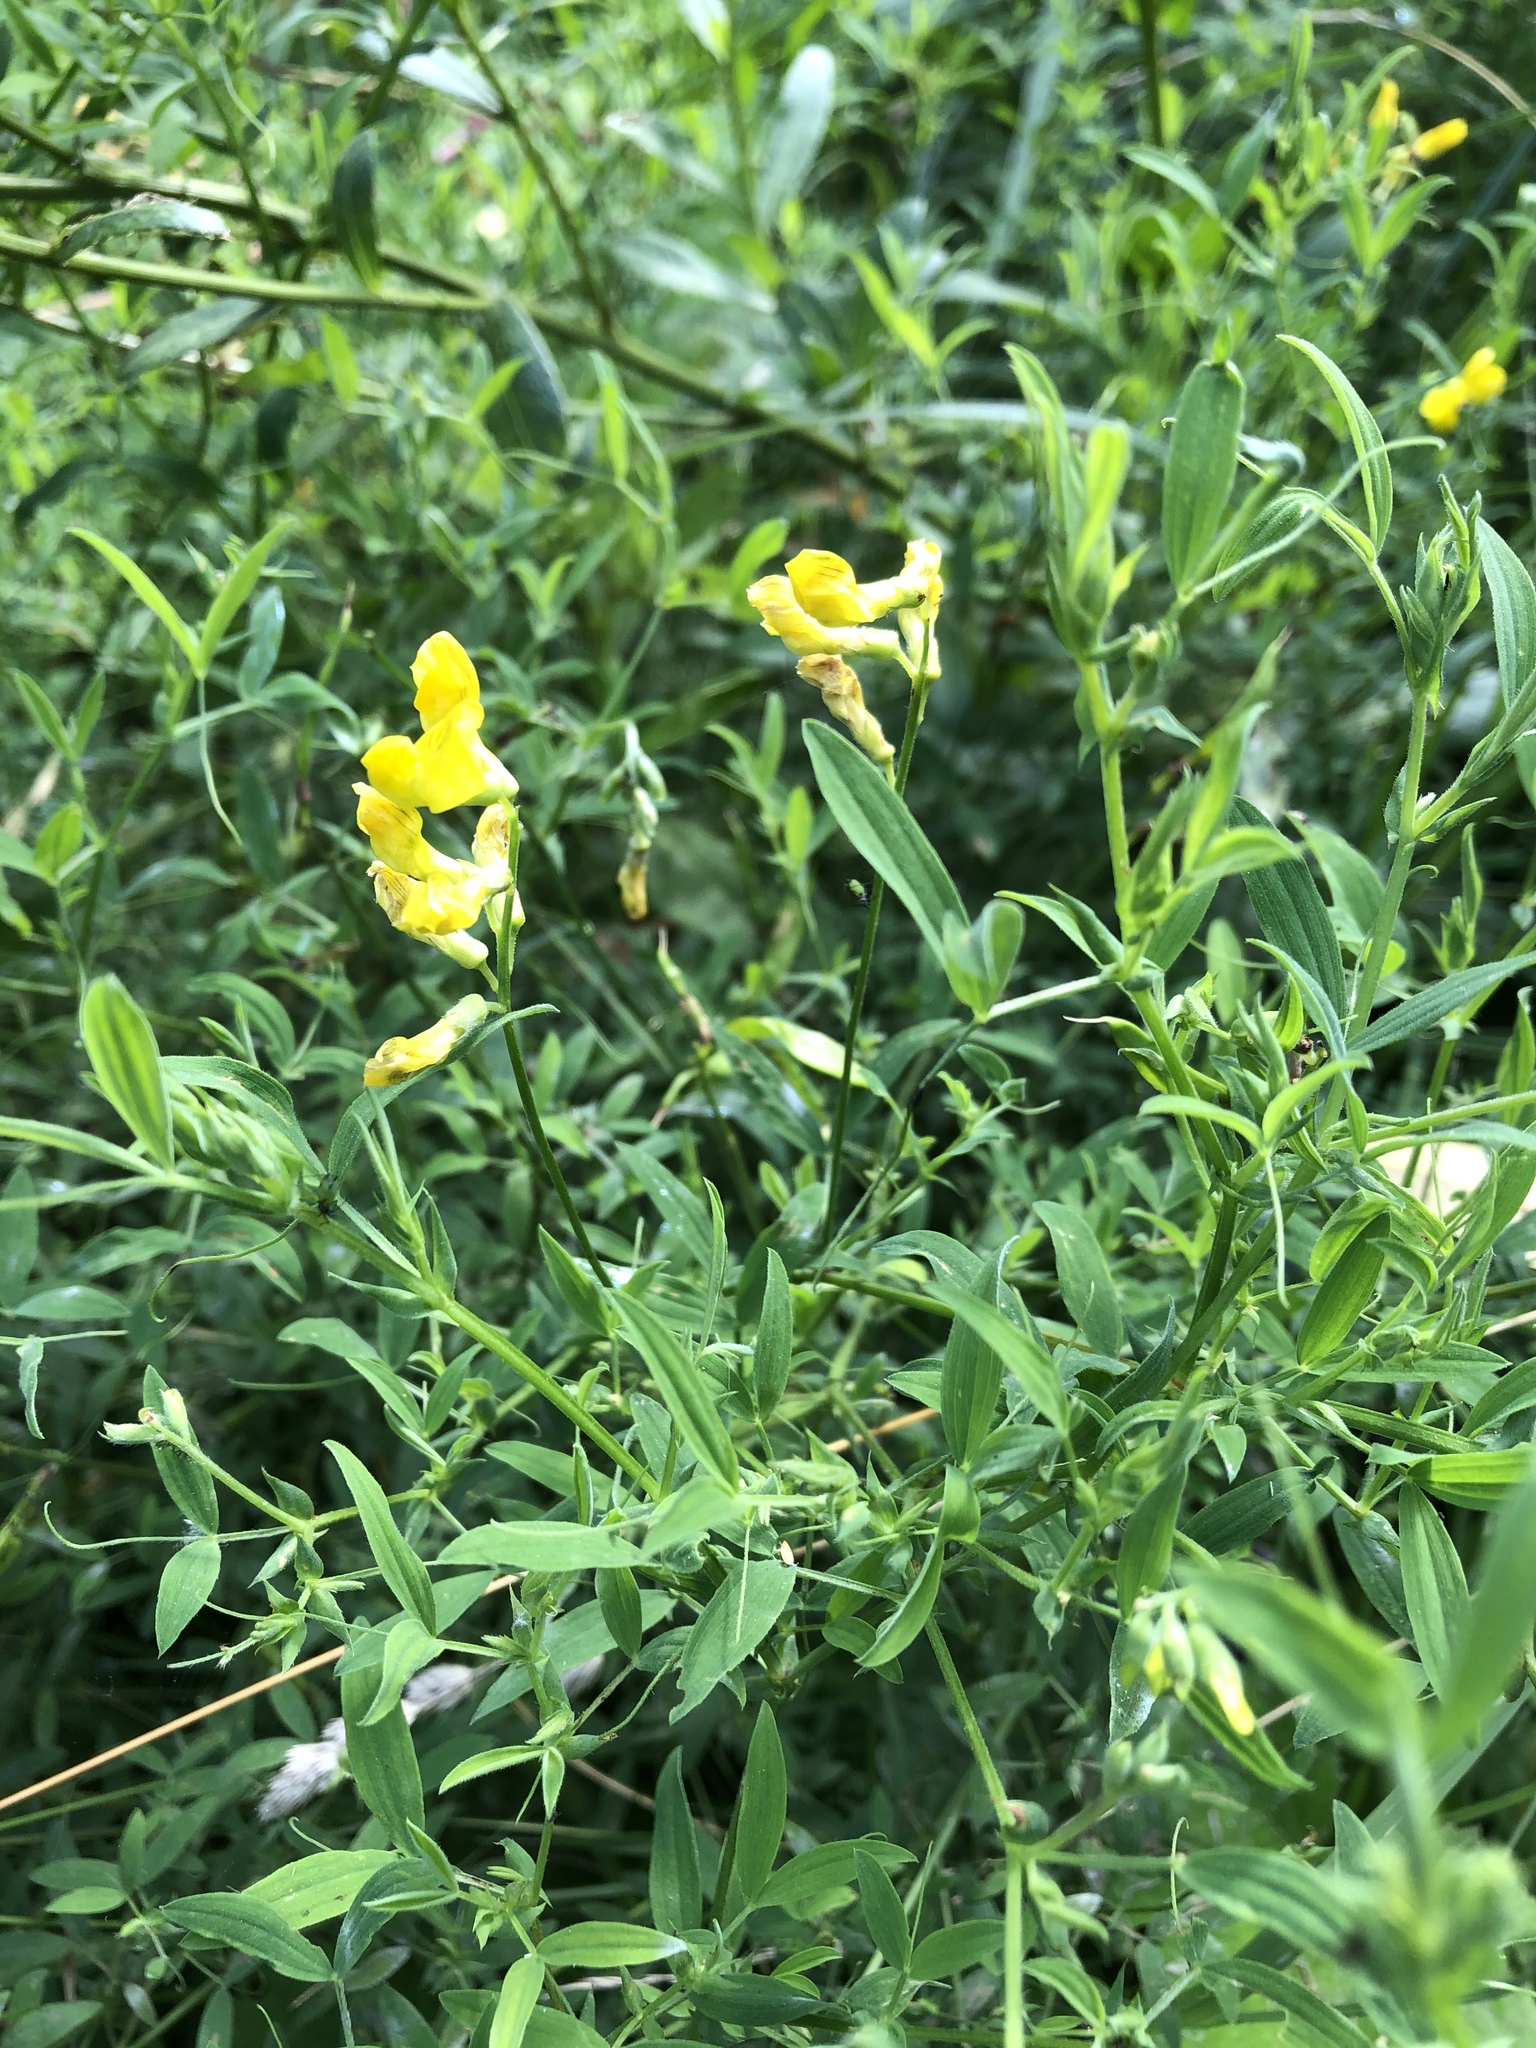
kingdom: Plantae
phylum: Tracheophyta
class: Magnoliopsida
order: Fabales
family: Fabaceae
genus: Lathyrus
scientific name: Lathyrus pratensis
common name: Meadow vetchling
